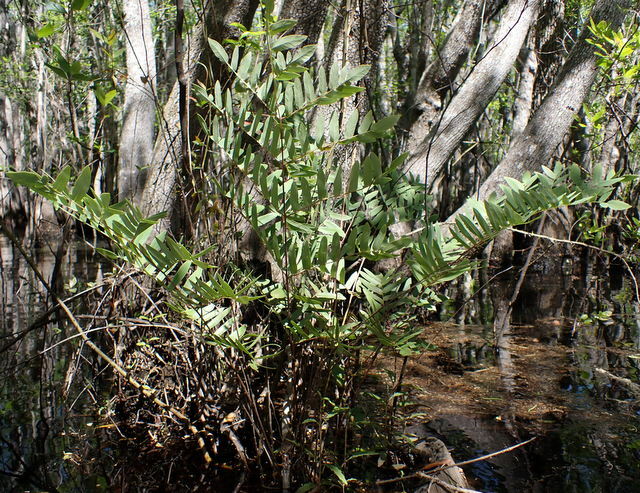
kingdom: Plantae
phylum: Tracheophyta
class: Polypodiopsida
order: Osmundales
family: Osmundaceae
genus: Osmunda
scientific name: Osmunda spectabilis
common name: American royal fern
